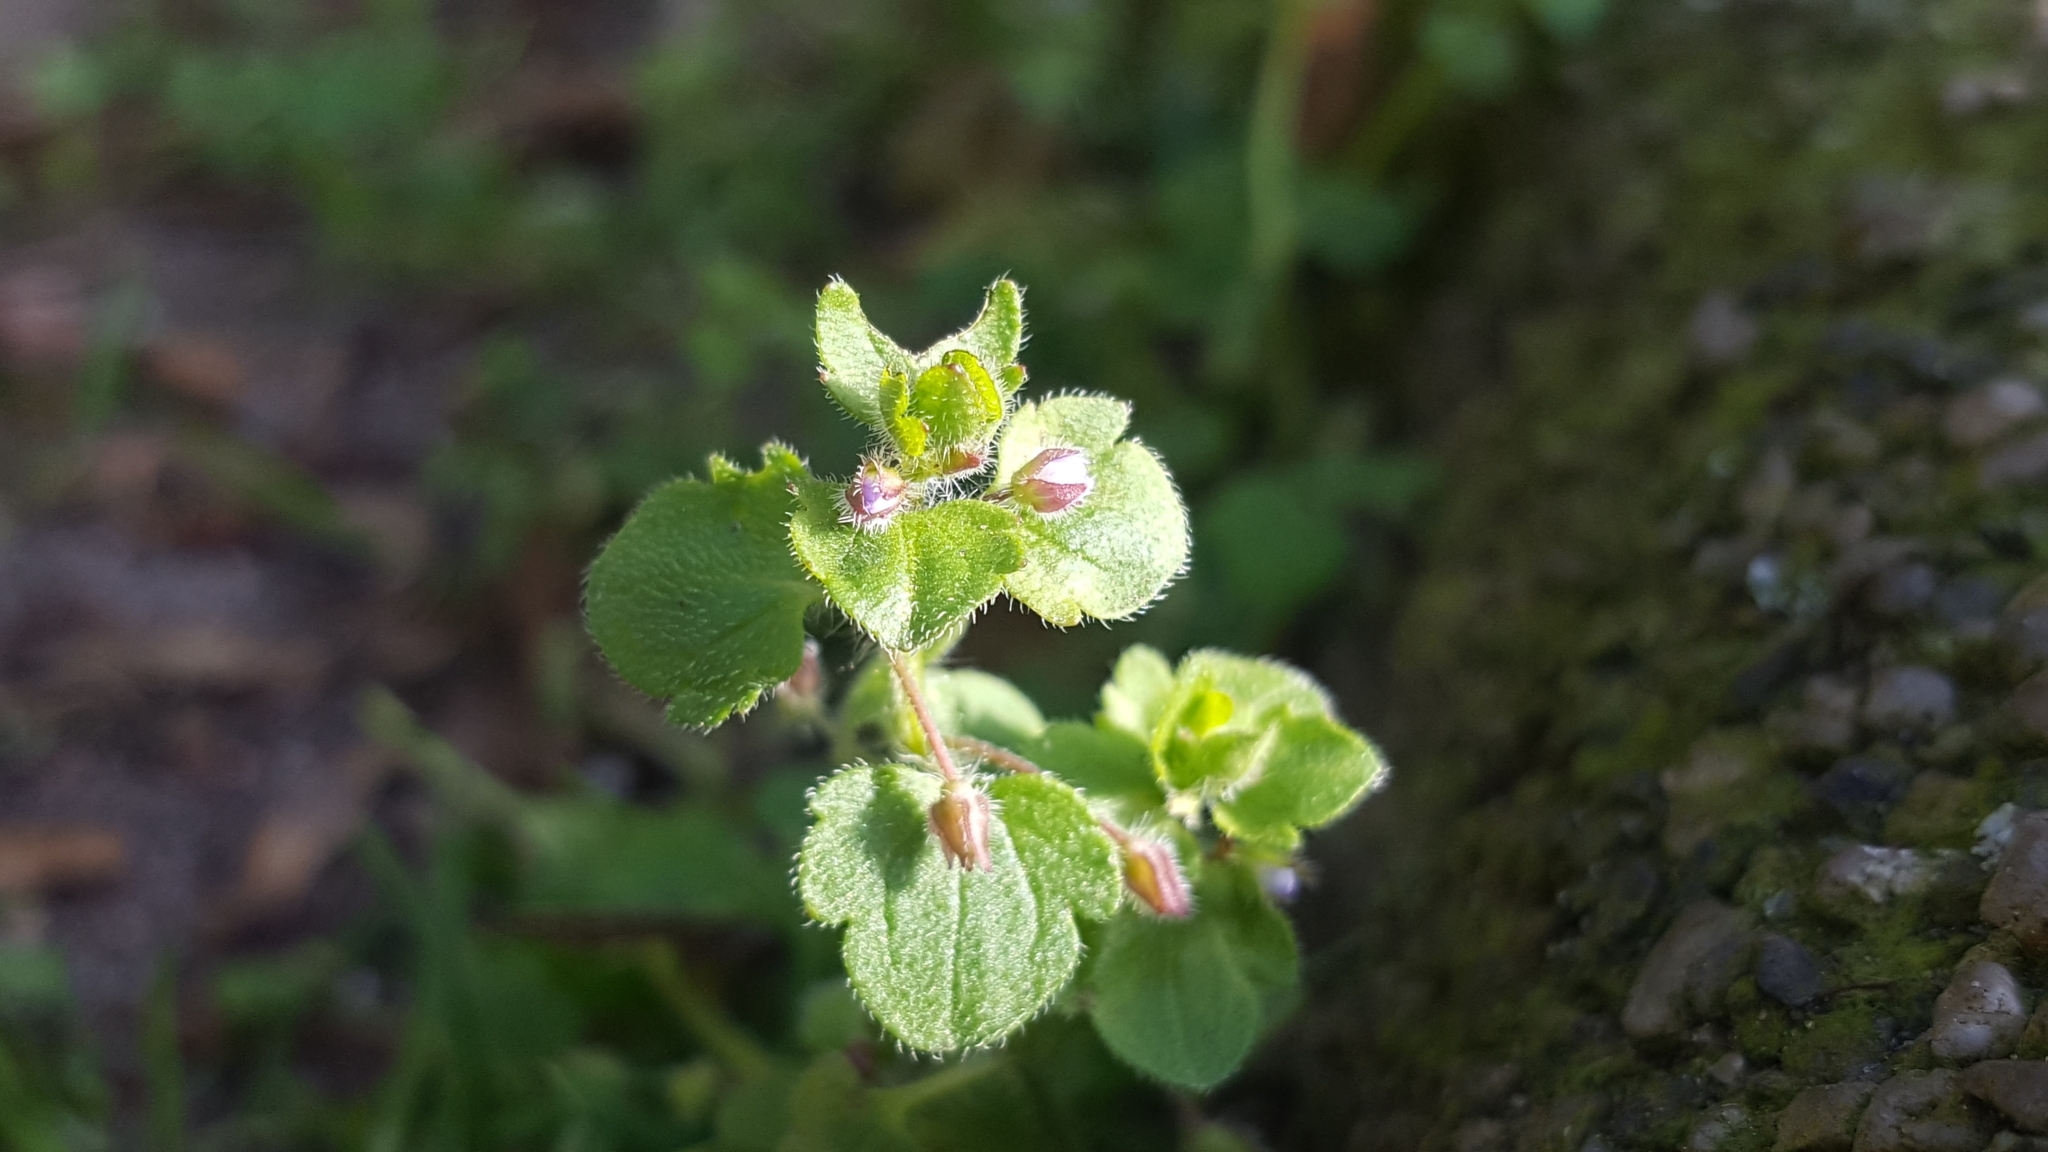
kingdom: Plantae
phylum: Tracheophyta
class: Magnoliopsida
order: Lamiales
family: Plantaginaceae
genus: Veronica
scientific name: Veronica sublobata
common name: False ivy-leaved speedwell
